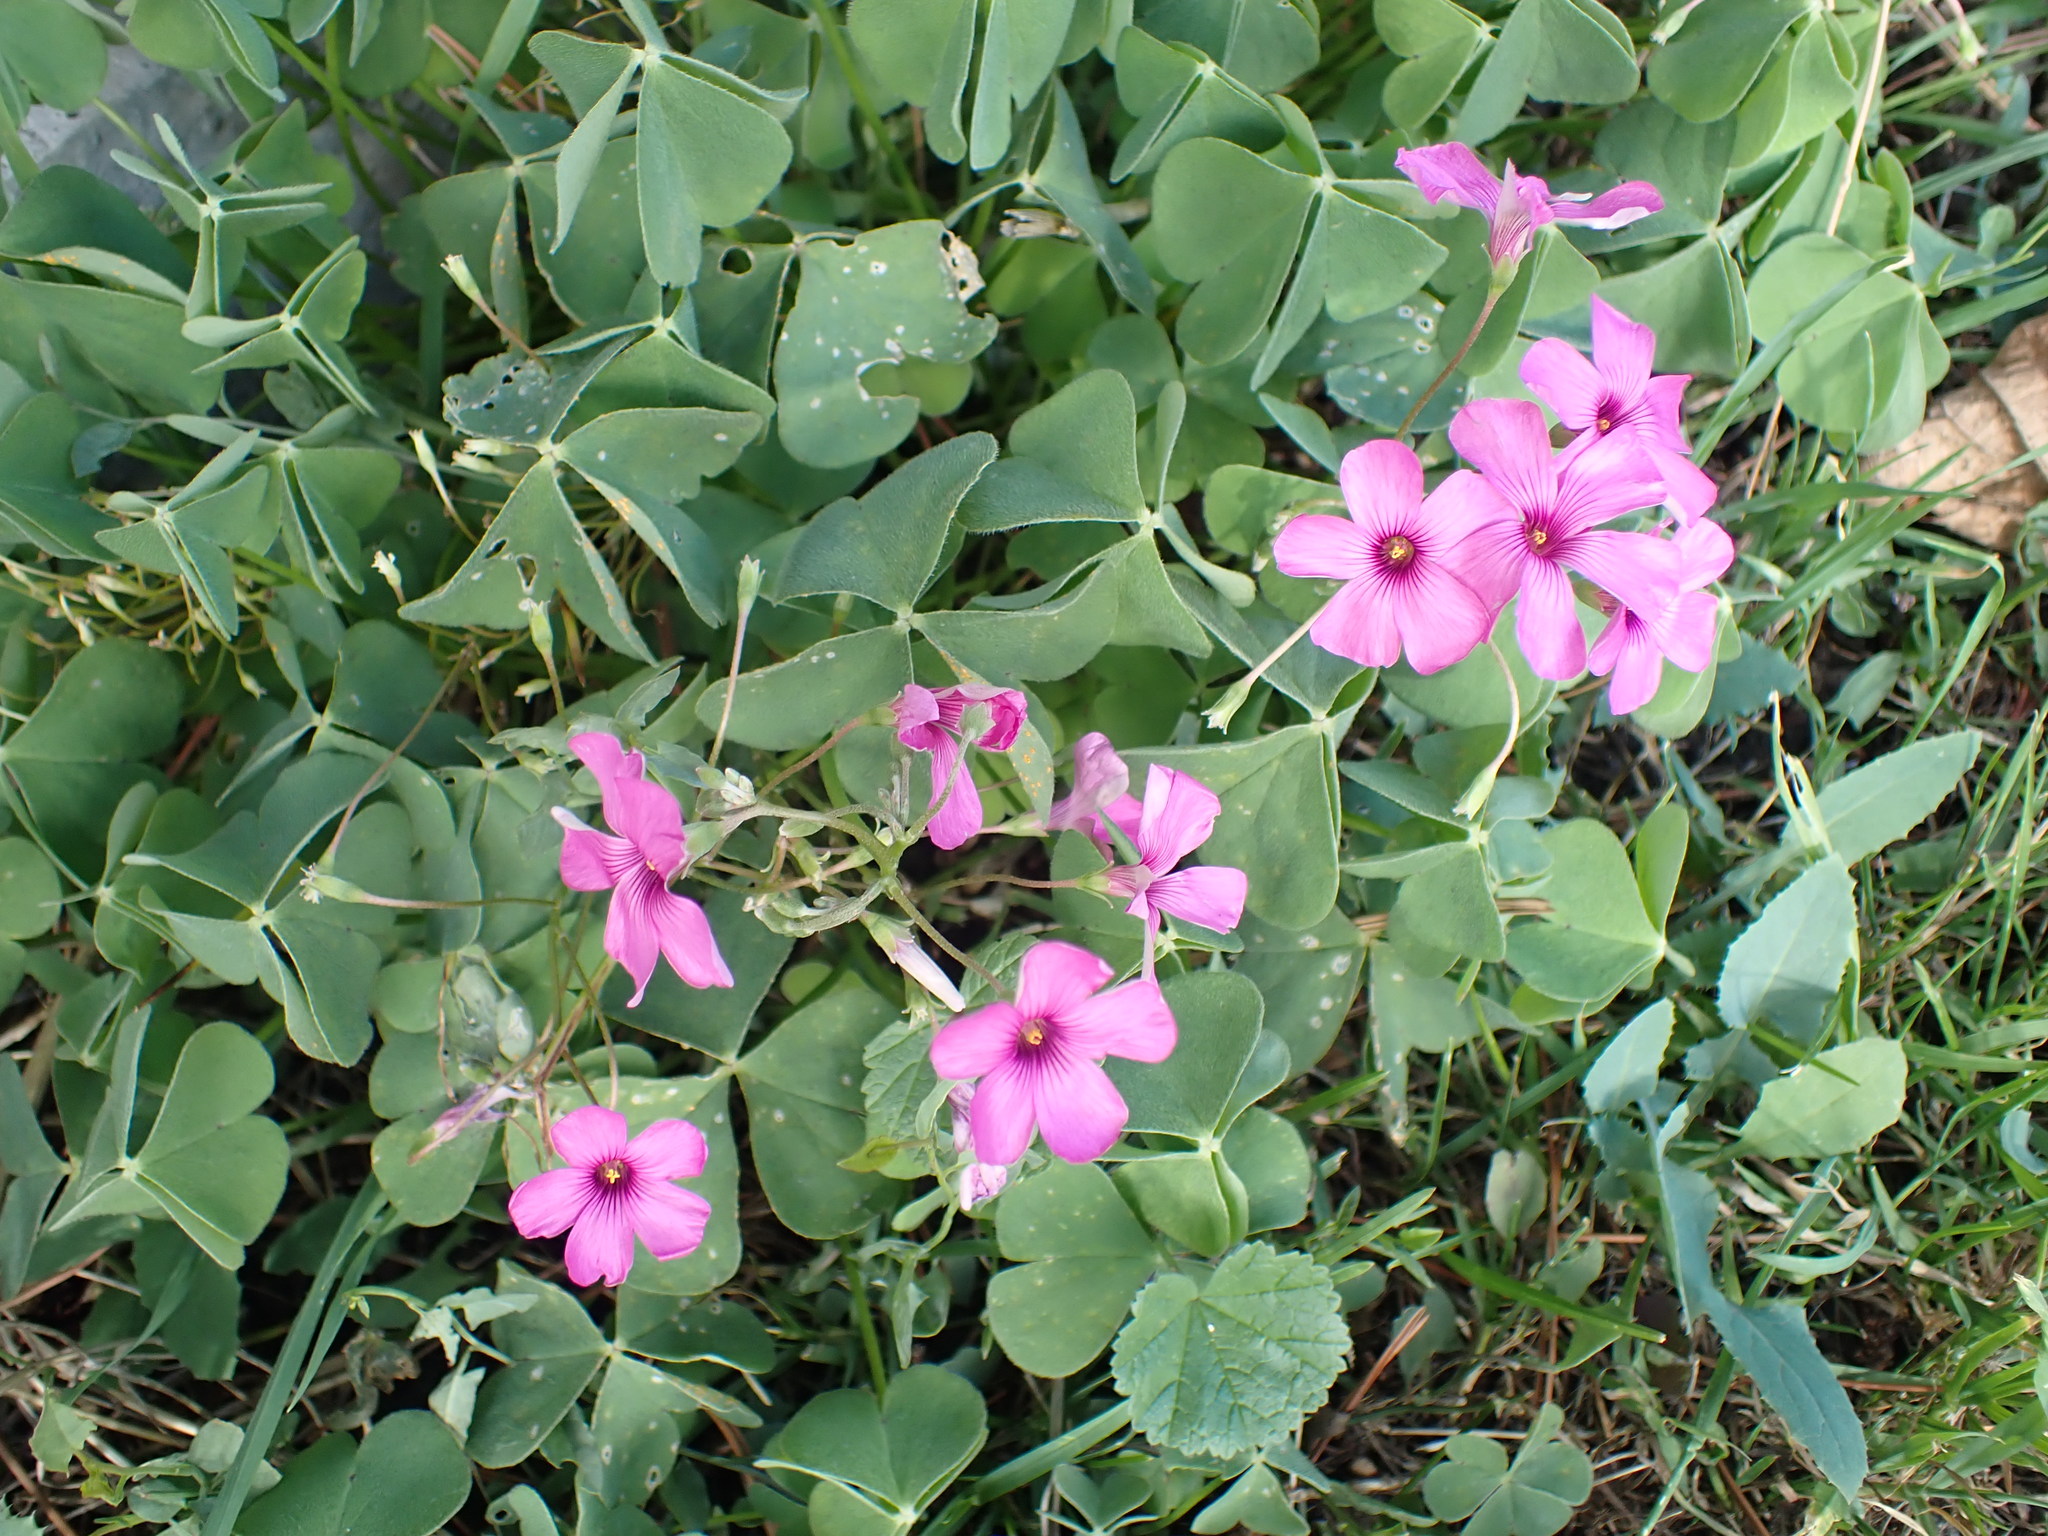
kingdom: Plantae
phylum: Tracheophyta
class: Magnoliopsida
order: Oxalidales
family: Oxalidaceae
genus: Oxalis
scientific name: Oxalis articulata
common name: Pink-sorrel
